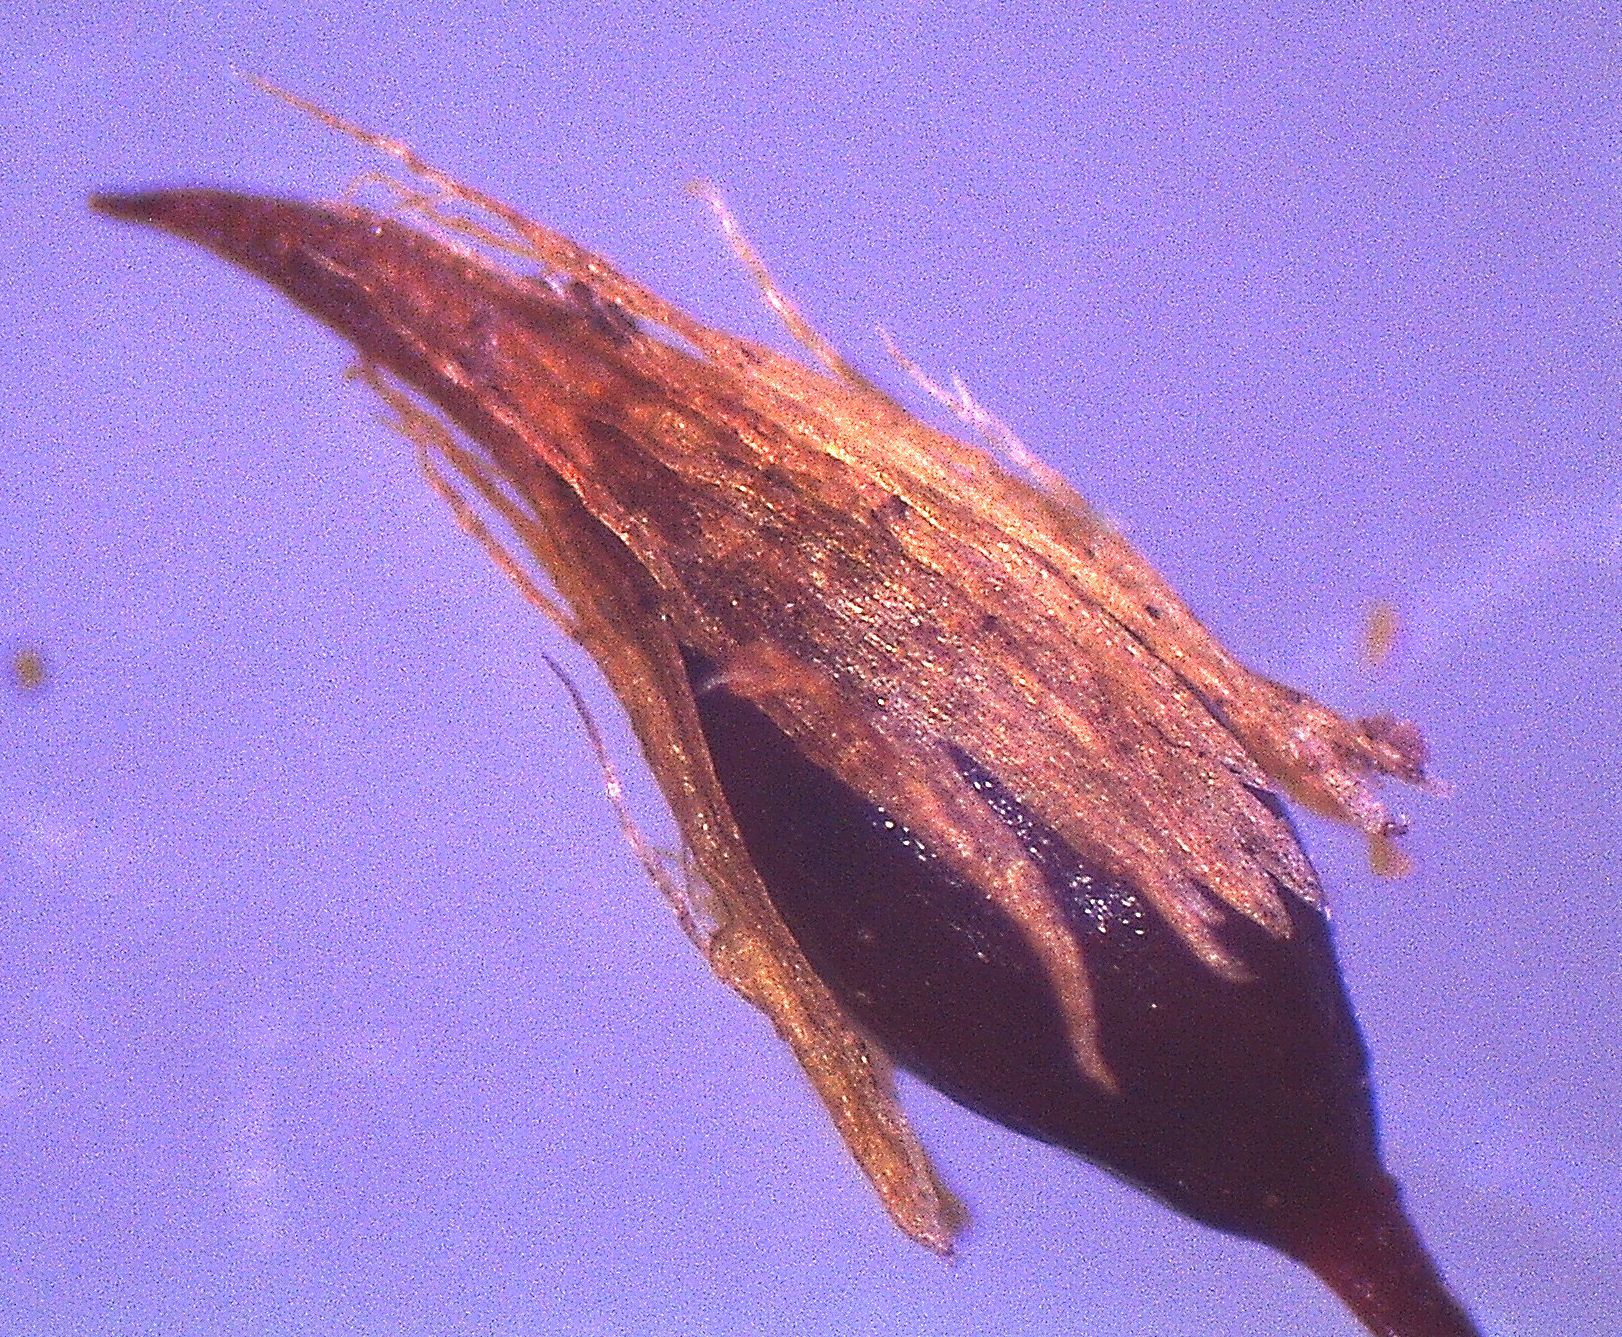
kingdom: Plantae
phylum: Bryophyta
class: Bryopsida
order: Orthotrichales
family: Orthotrichaceae
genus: Macromitrium
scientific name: Macromitrium prorepens
